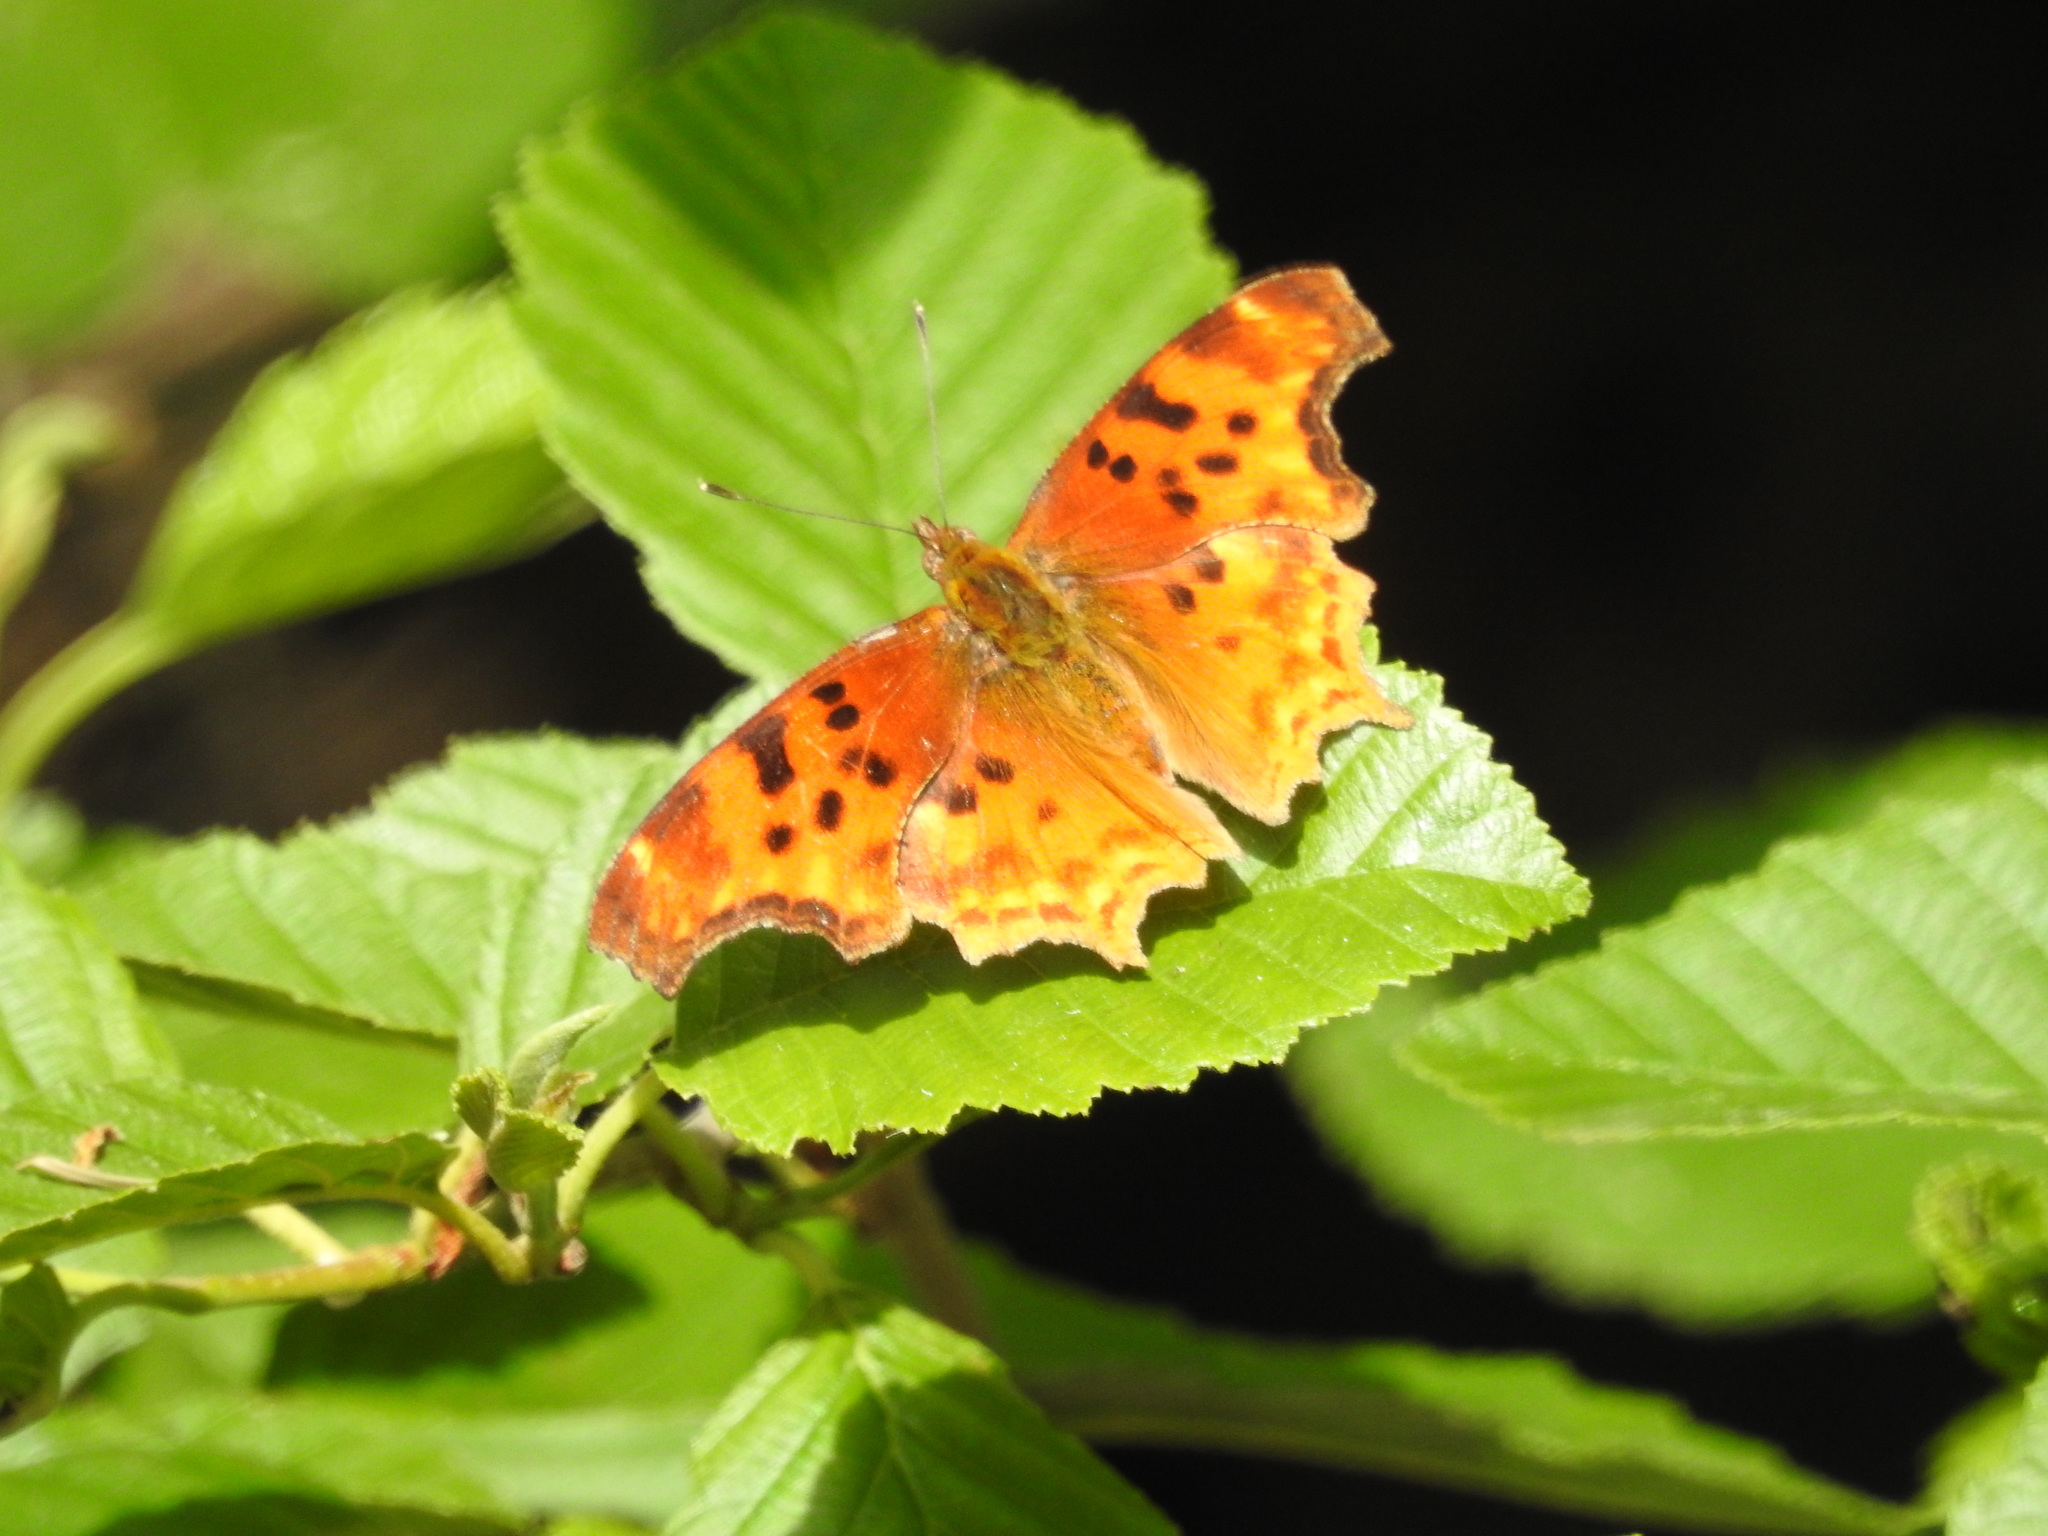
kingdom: Animalia
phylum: Arthropoda
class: Insecta
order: Lepidoptera
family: Nymphalidae
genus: Polygonia
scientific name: Polygonia satyrus
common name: Satyr angle wing
